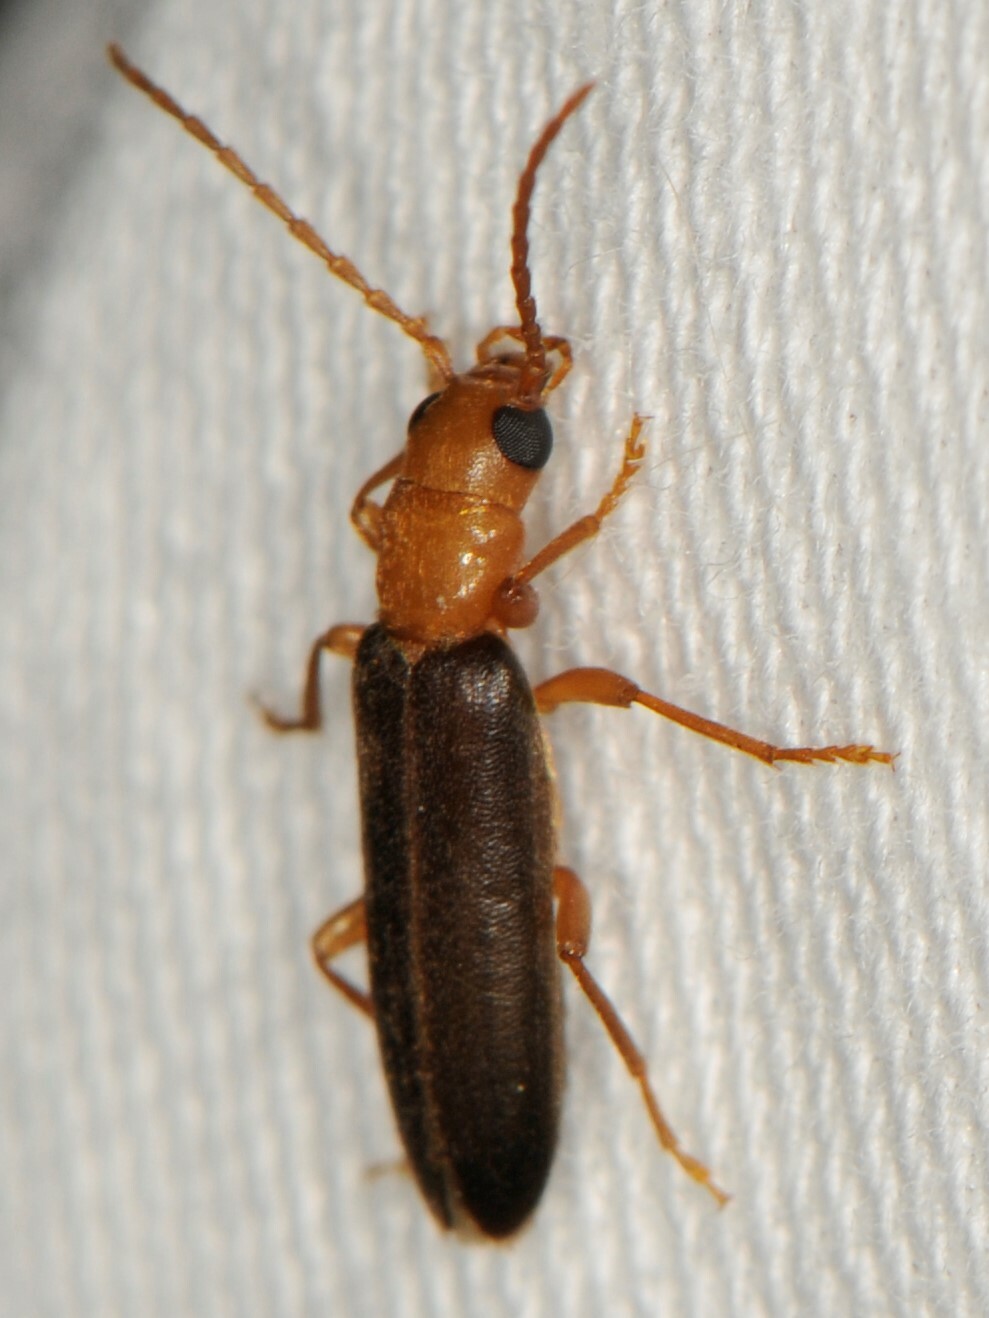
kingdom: Animalia
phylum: Arthropoda
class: Insecta
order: Coleoptera
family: Oedemeridae
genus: Xanthochroina
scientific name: Xanthochroina bicolor
